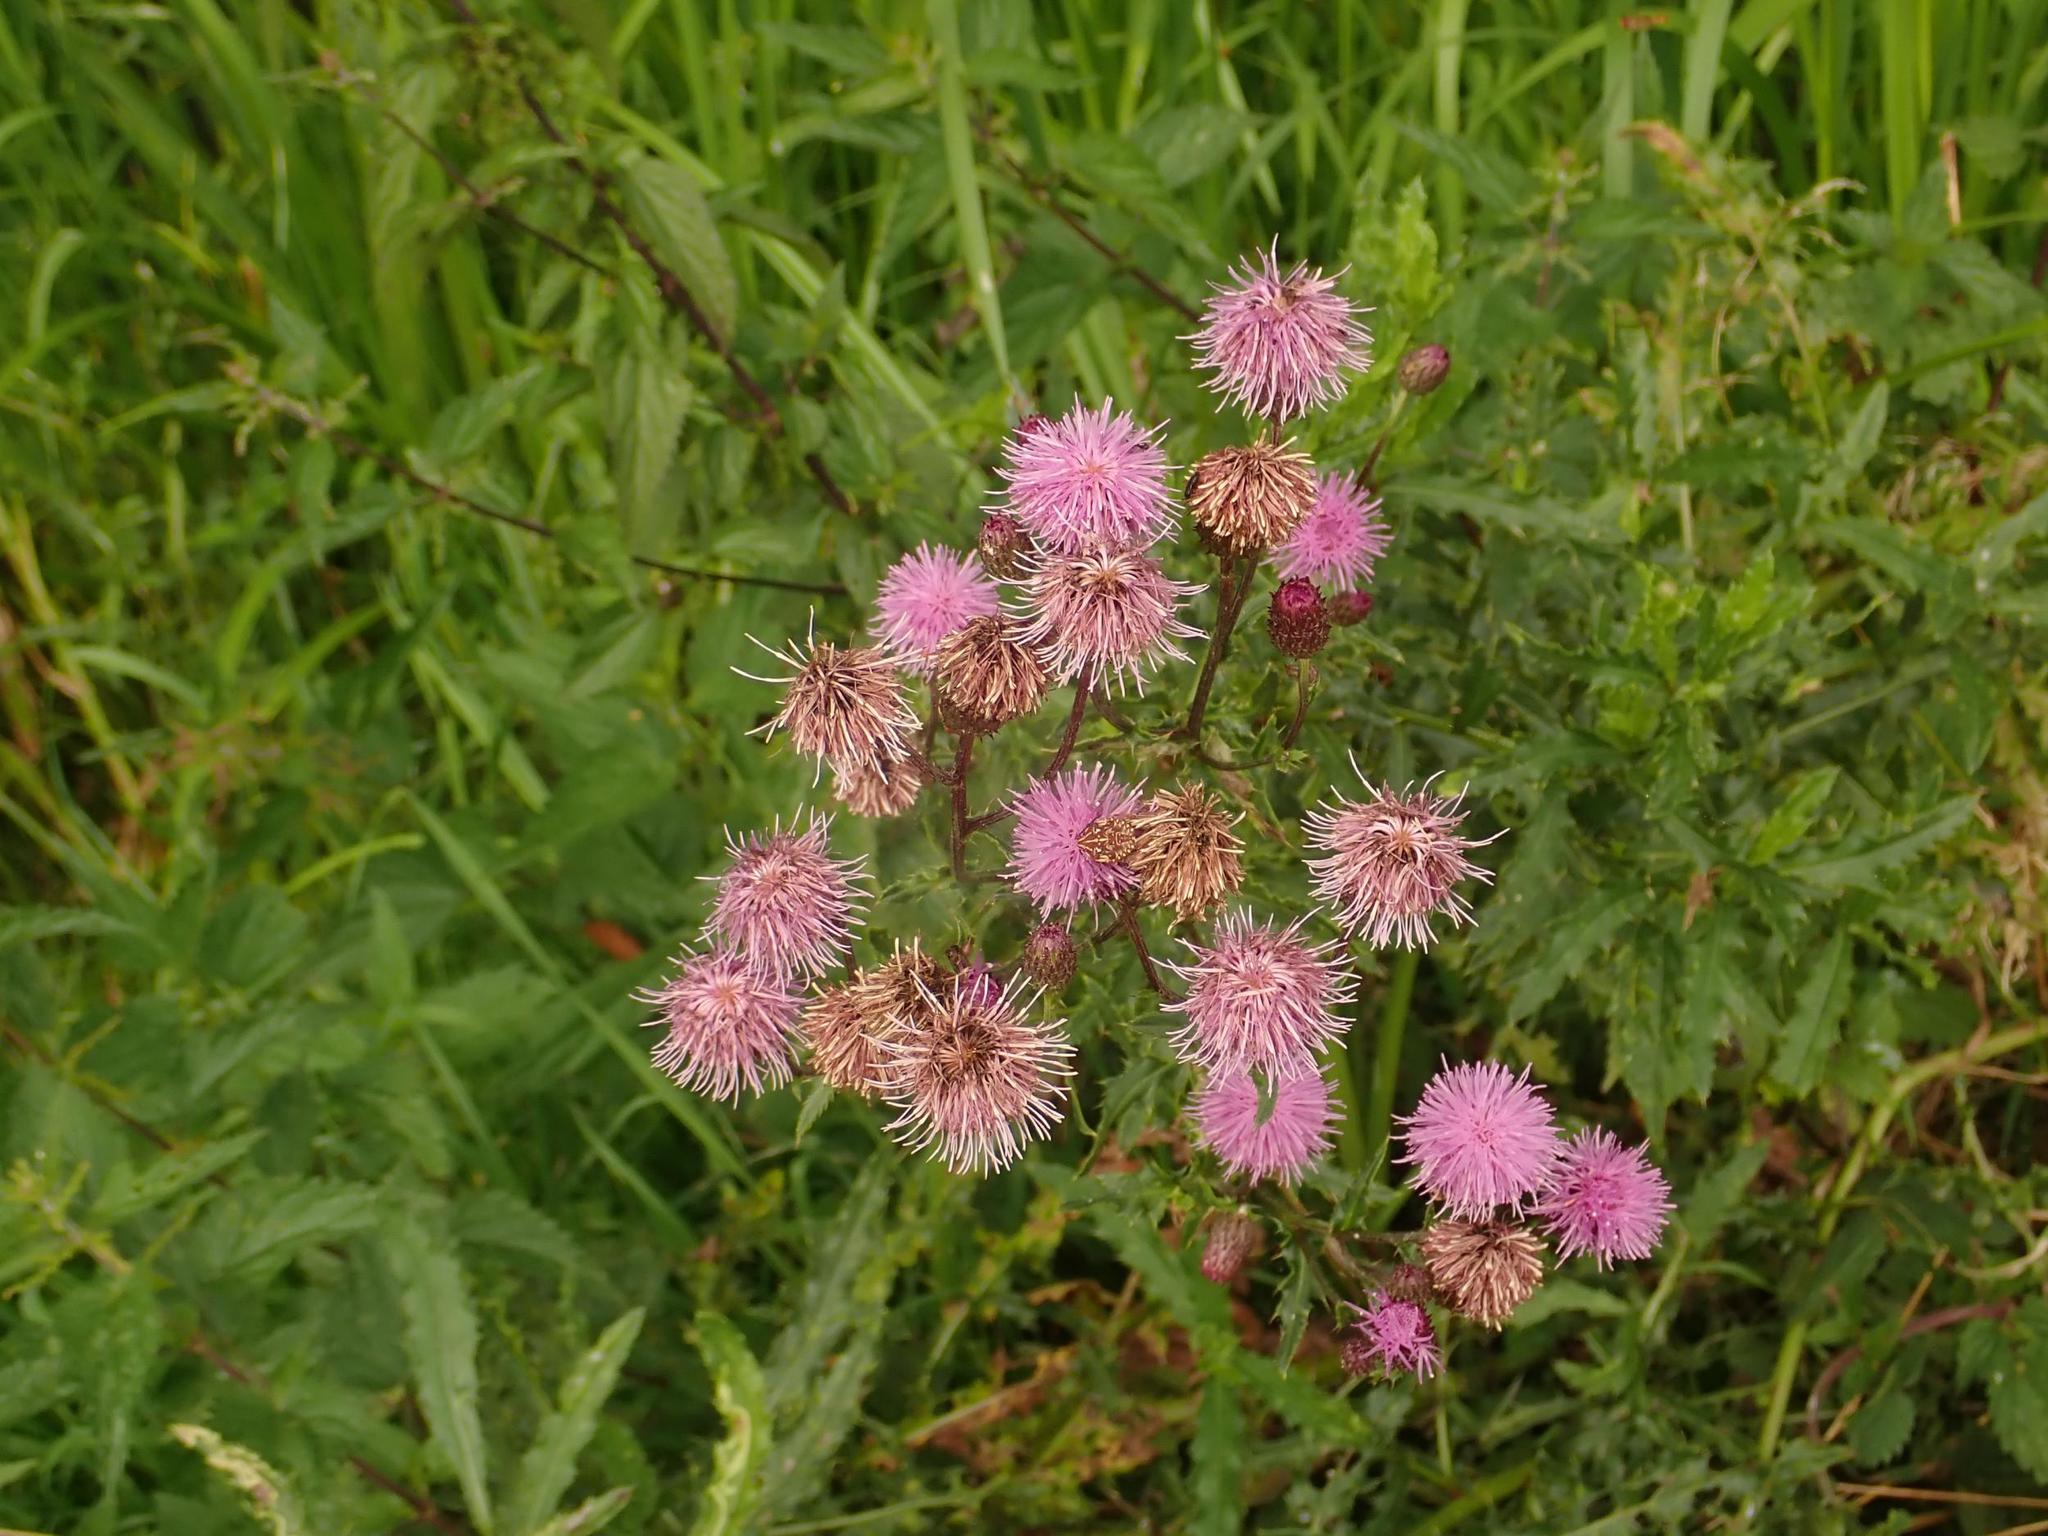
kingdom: Plantae
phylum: Tracheophyta
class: Magnoliopsida
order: Asterales
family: Asteraceae
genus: Cirsium
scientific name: Cirsium arvense
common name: Creeping thistle
